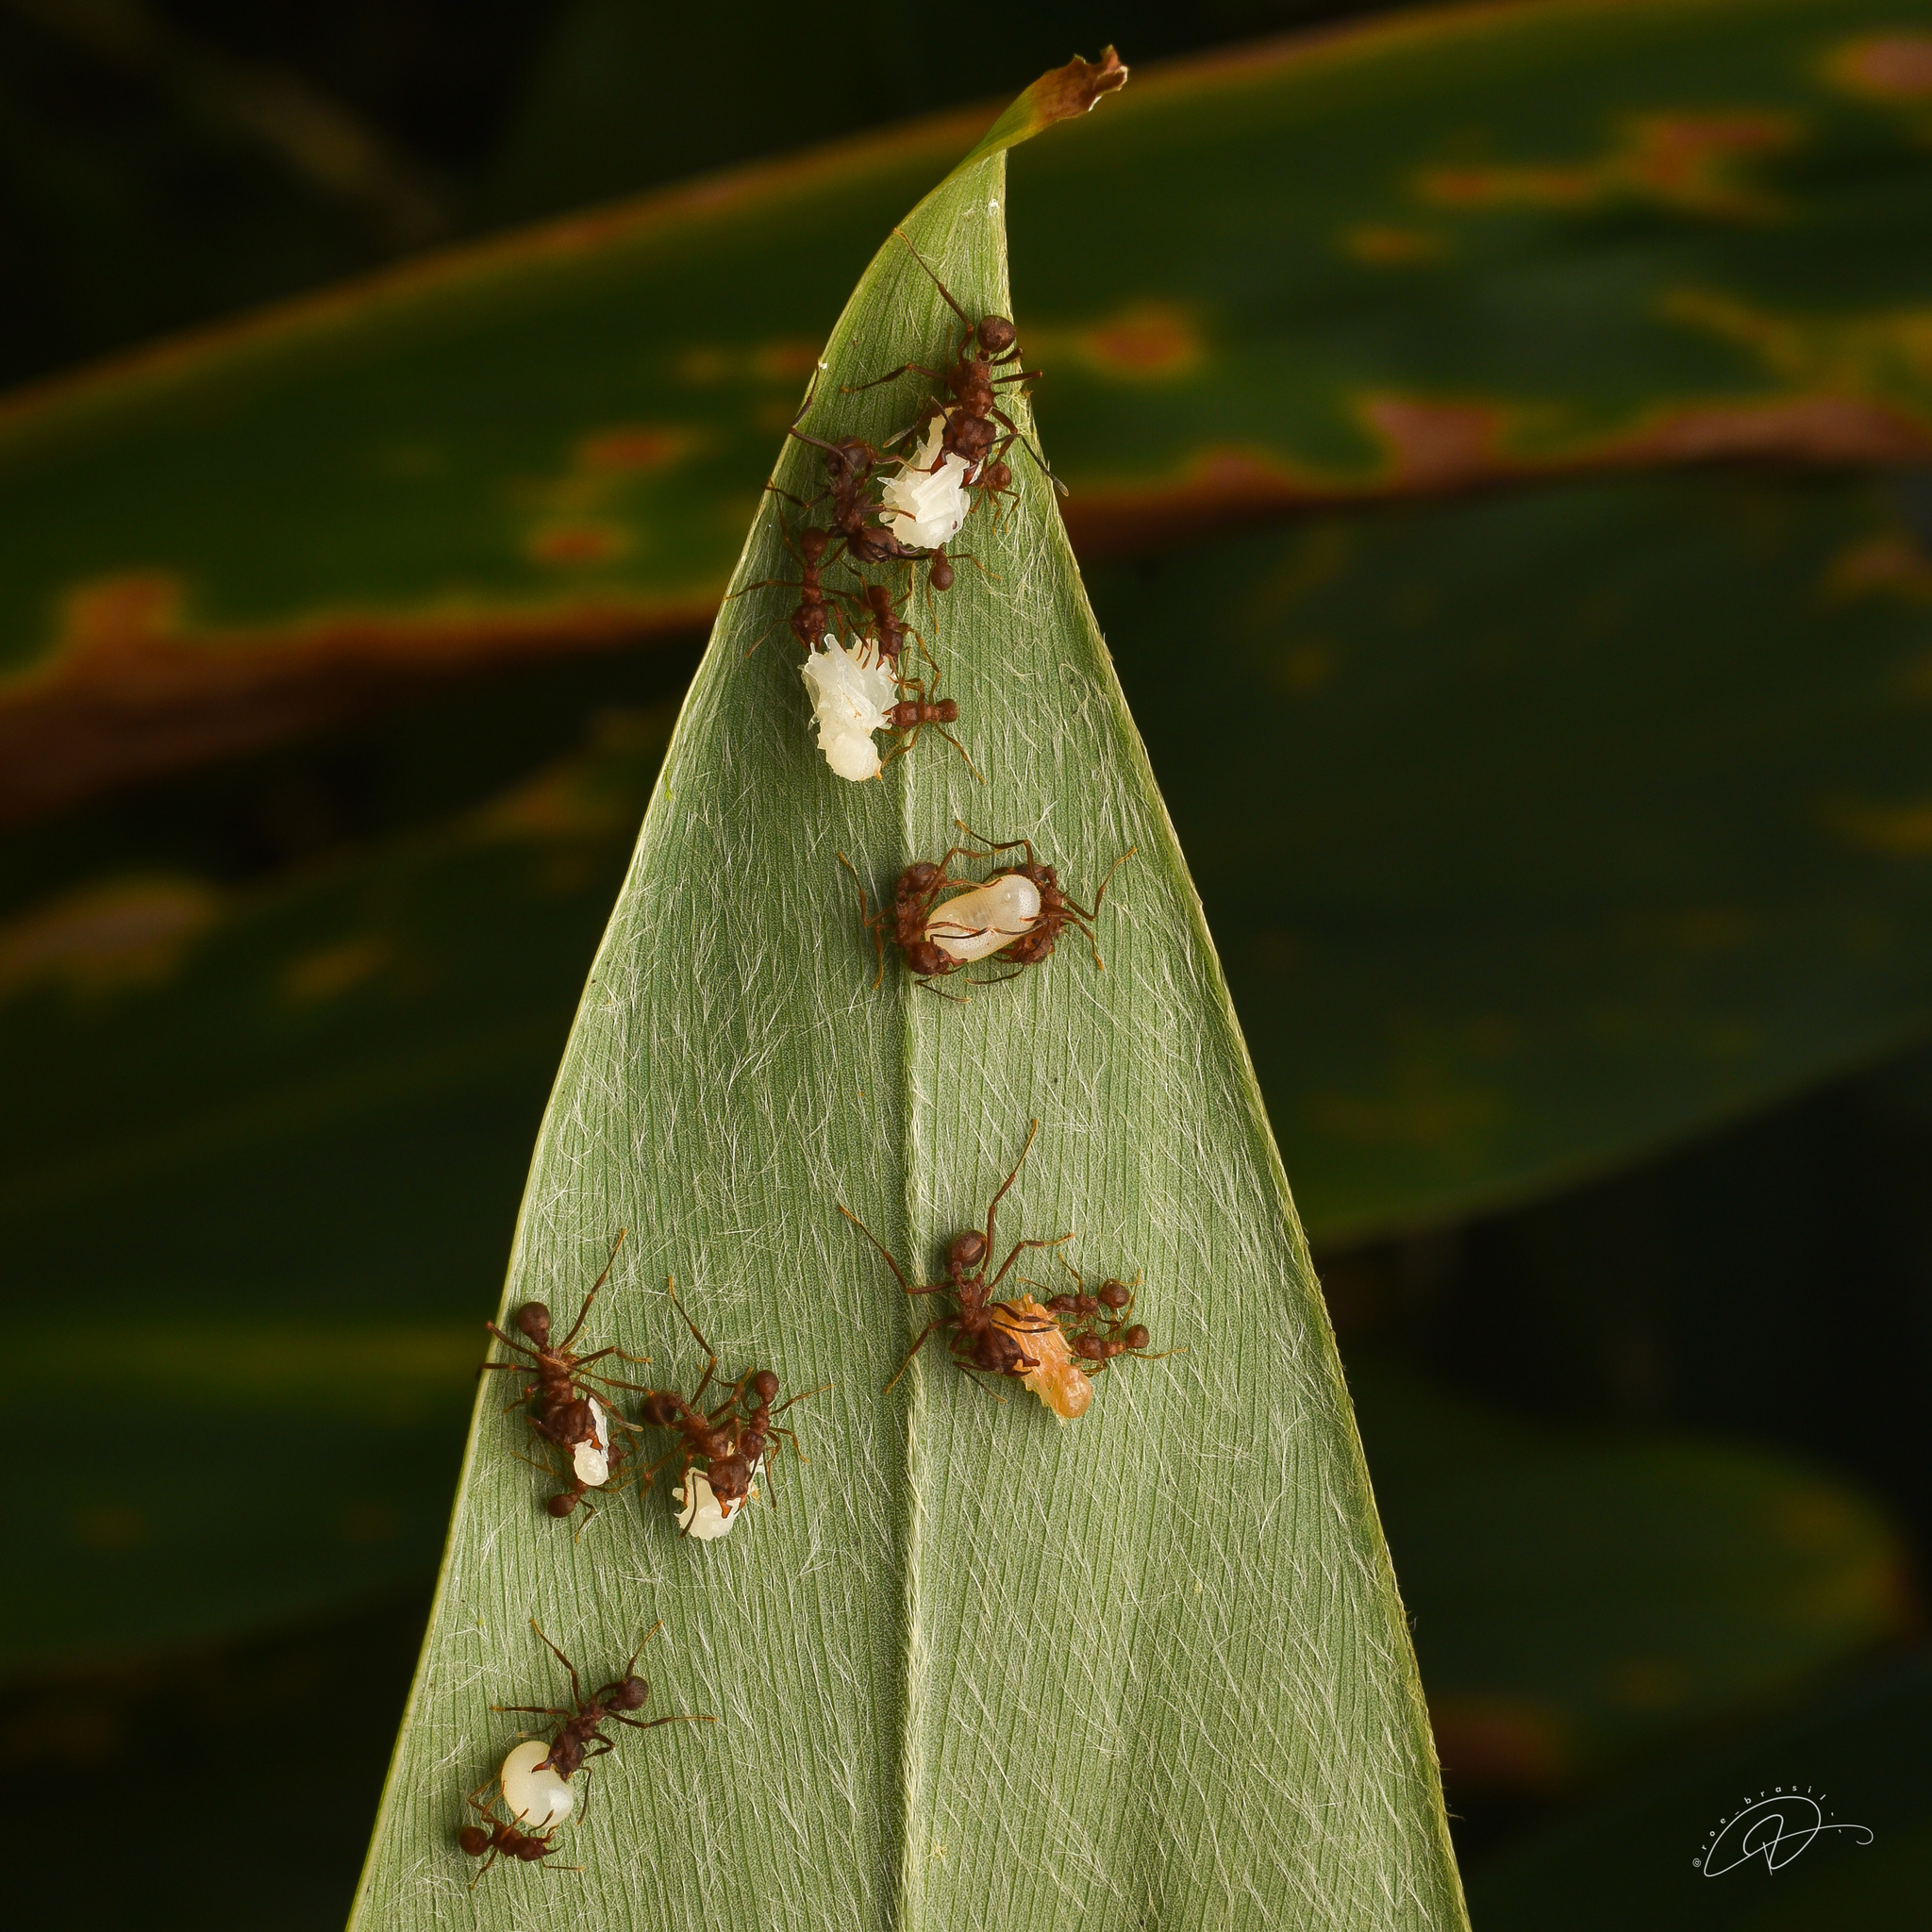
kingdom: Animalia
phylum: Arthropoda
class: Insecta
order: Hymenoptera
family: Formicidae
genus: Acromyrmex
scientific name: Acromyrmex disciger
